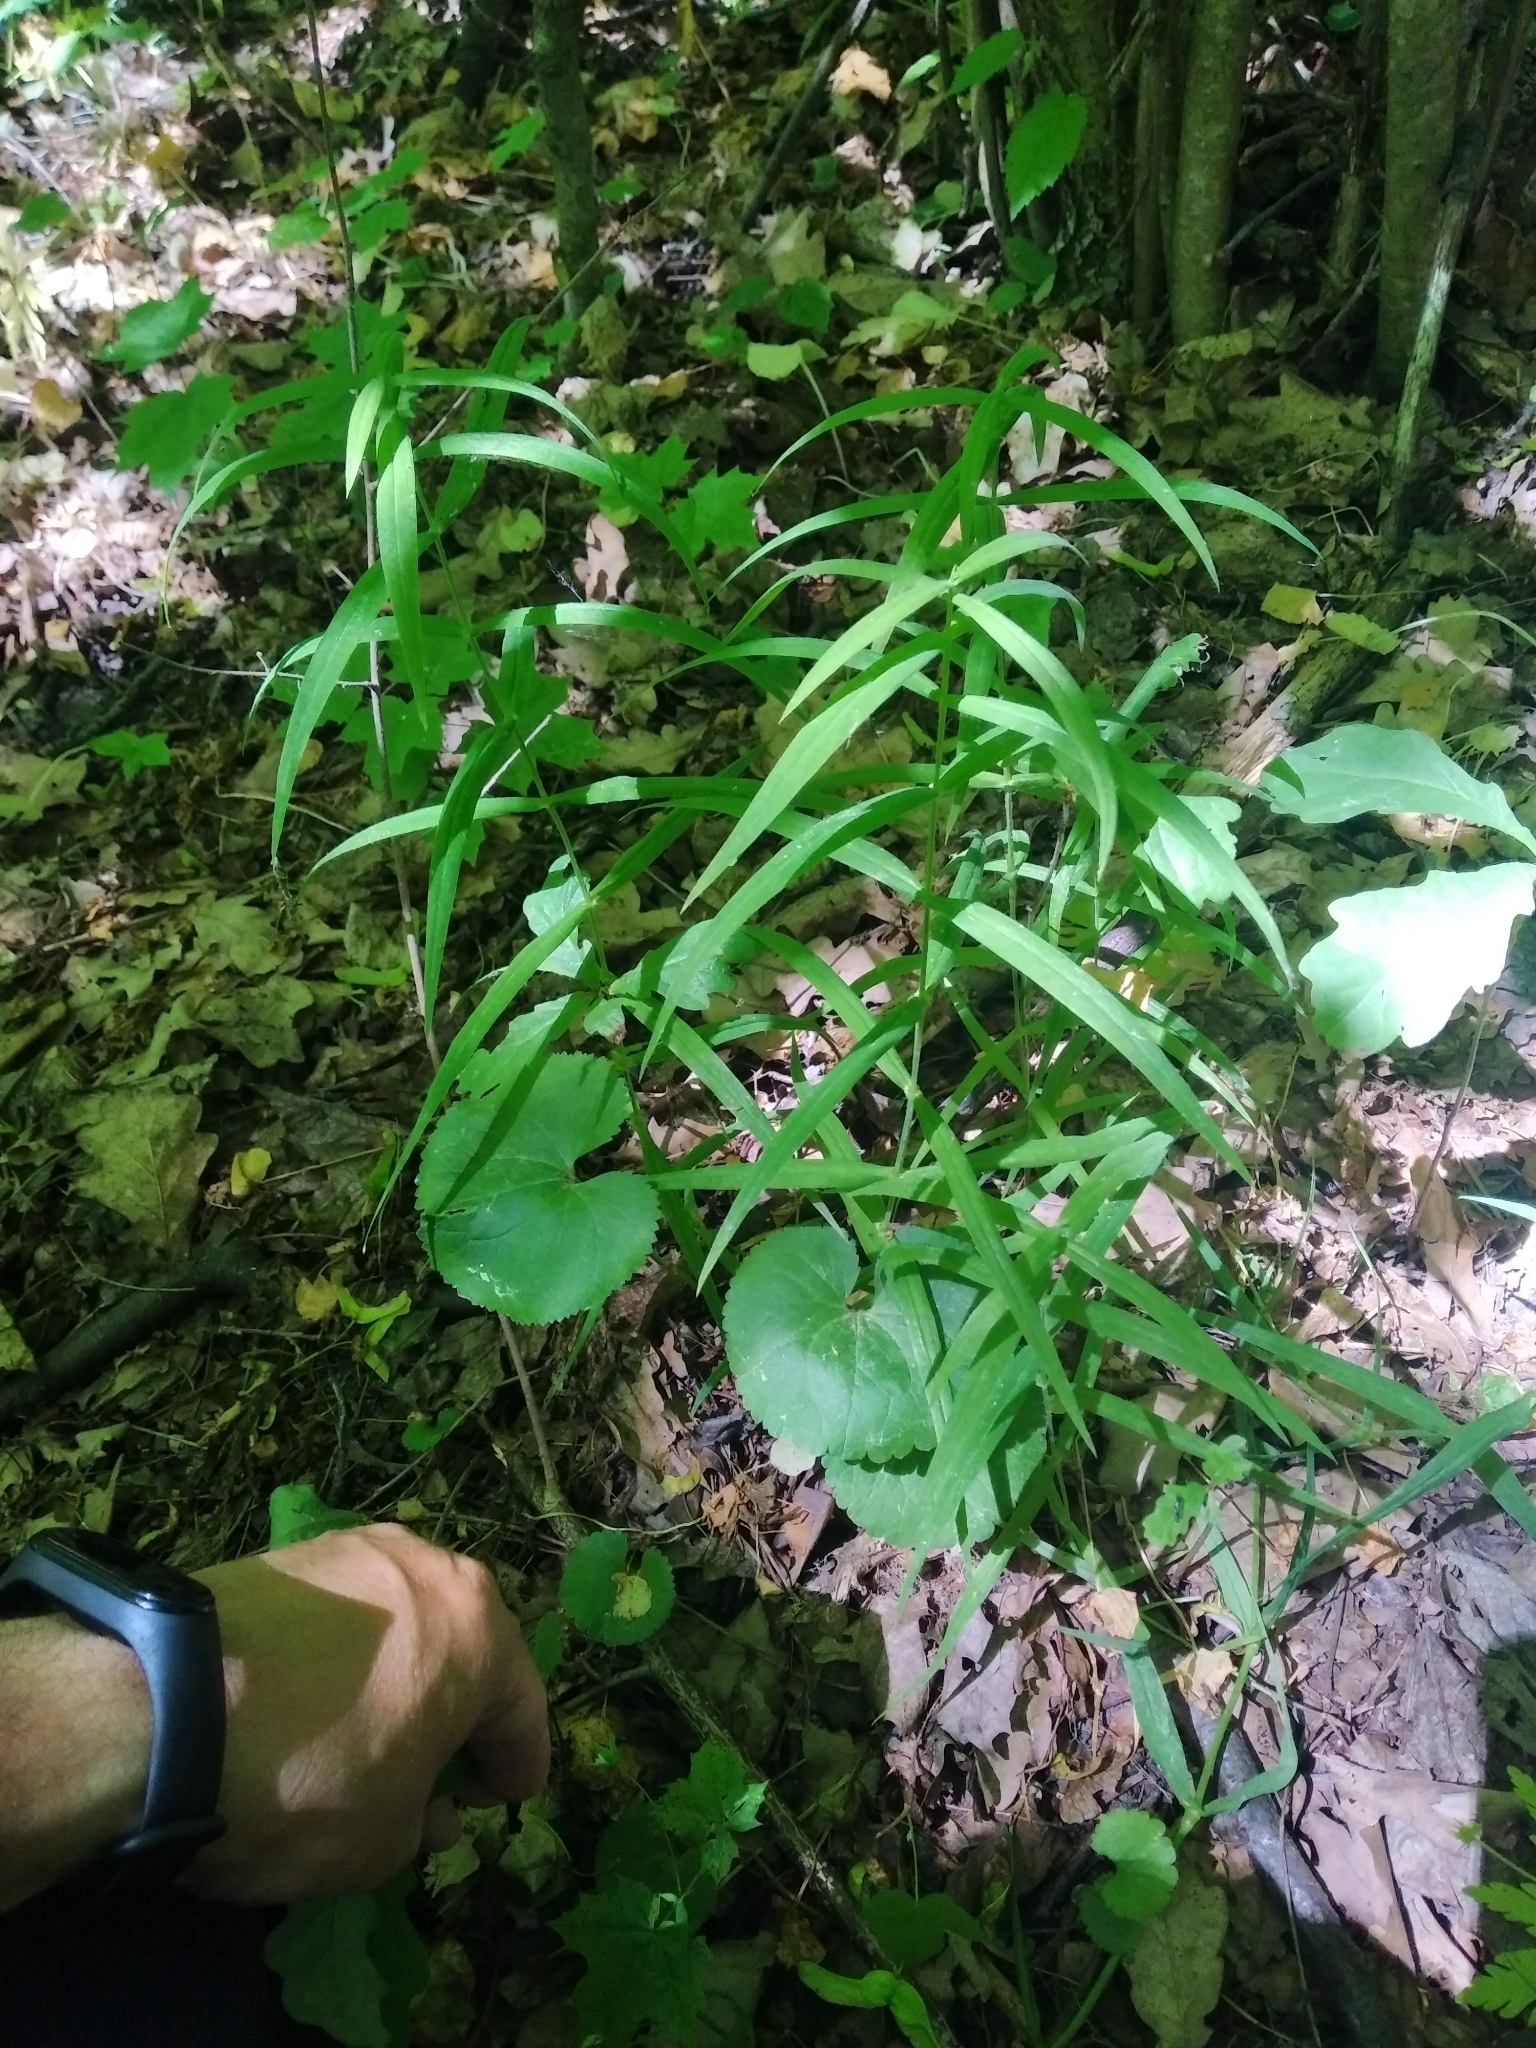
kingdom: Plantae
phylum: Tracheophyta
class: Magnoliopsida
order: Ranunculales
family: Ranunculaceae
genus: Ranunculus
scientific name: Ranunculus cassubicus
